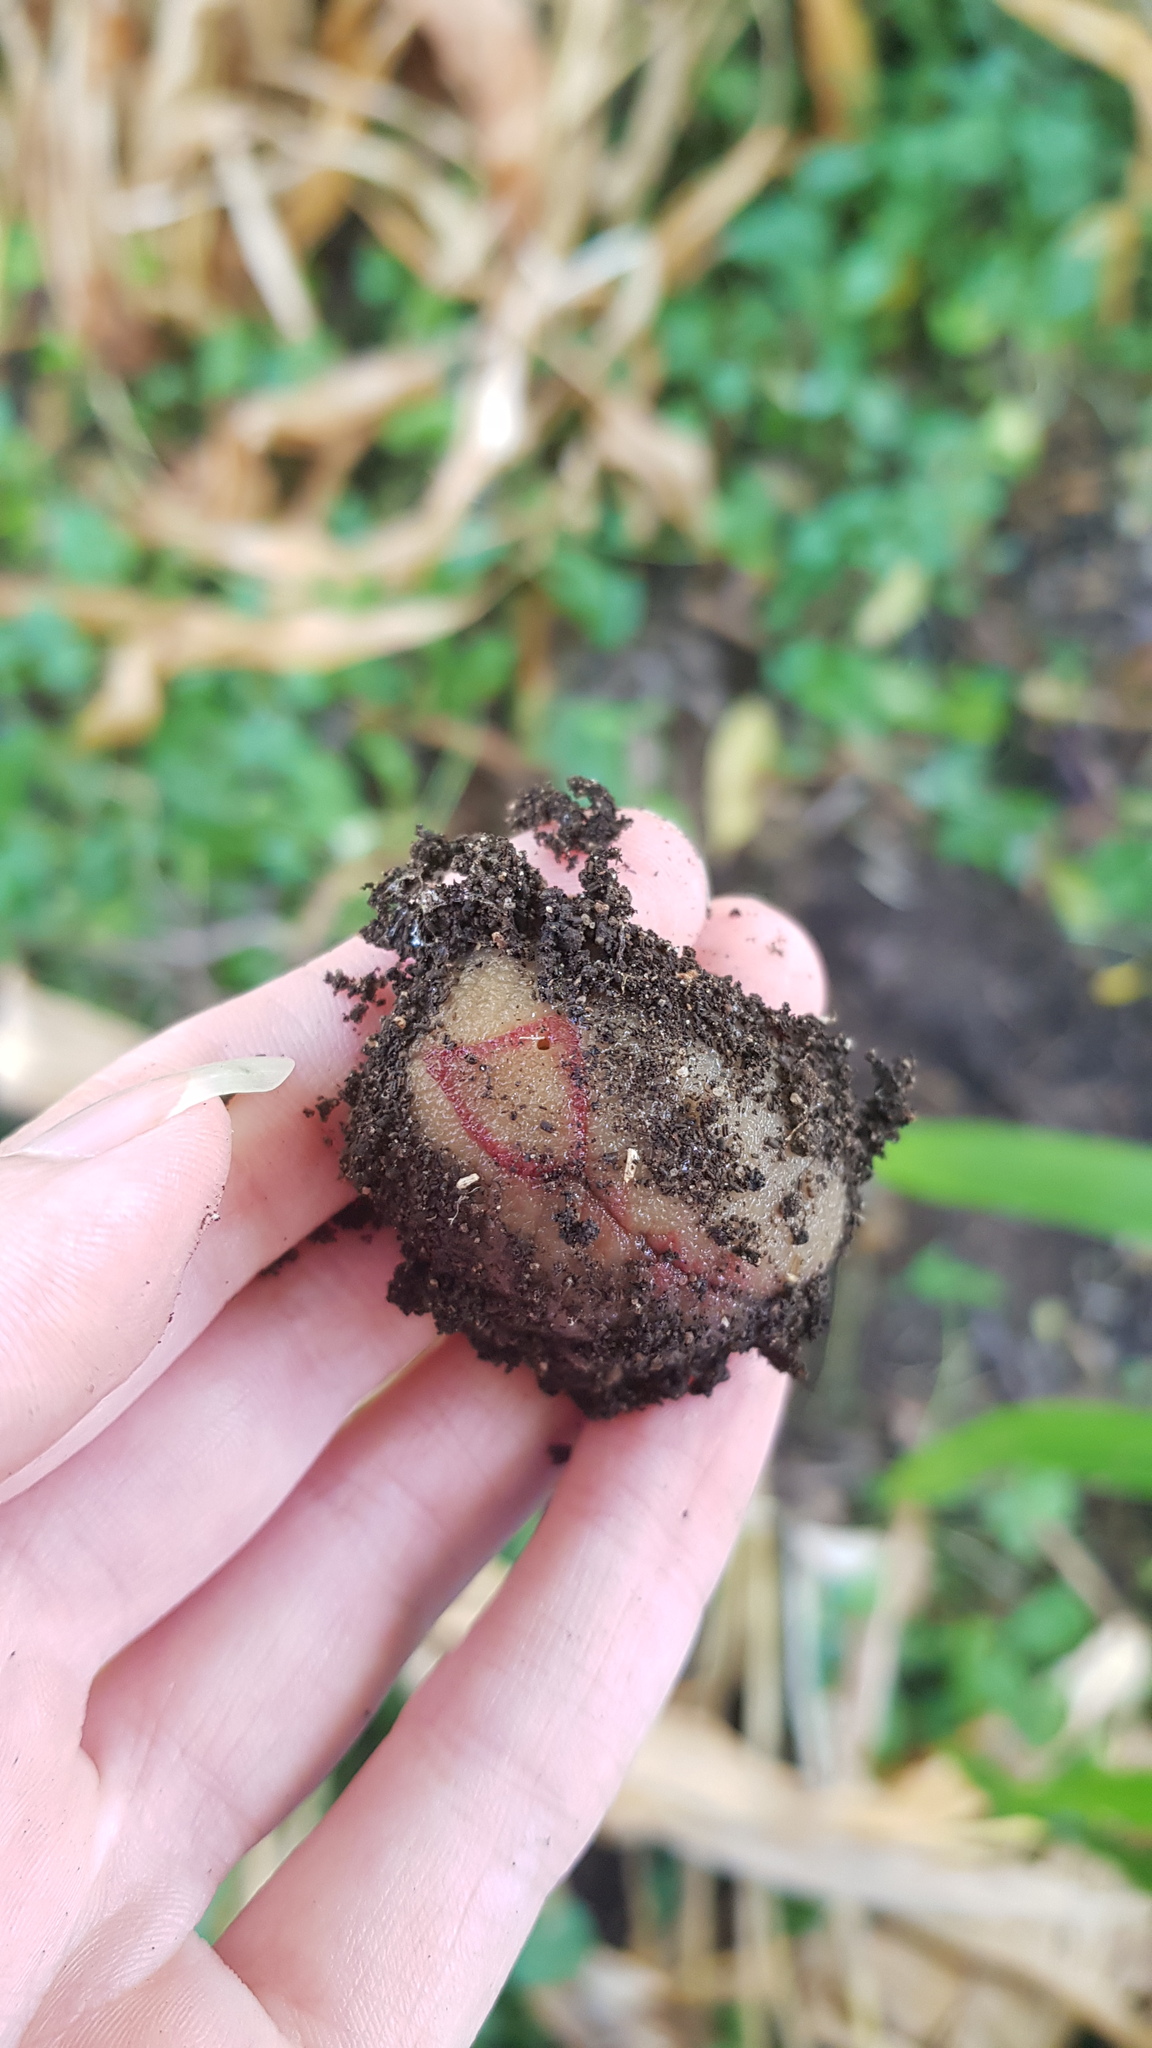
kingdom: Animalia
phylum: Mollusca
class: Gastropoda
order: Stylommatophora
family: Athoracophoridae
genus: Triboniophorus
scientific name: Triboniophorus graeffei
